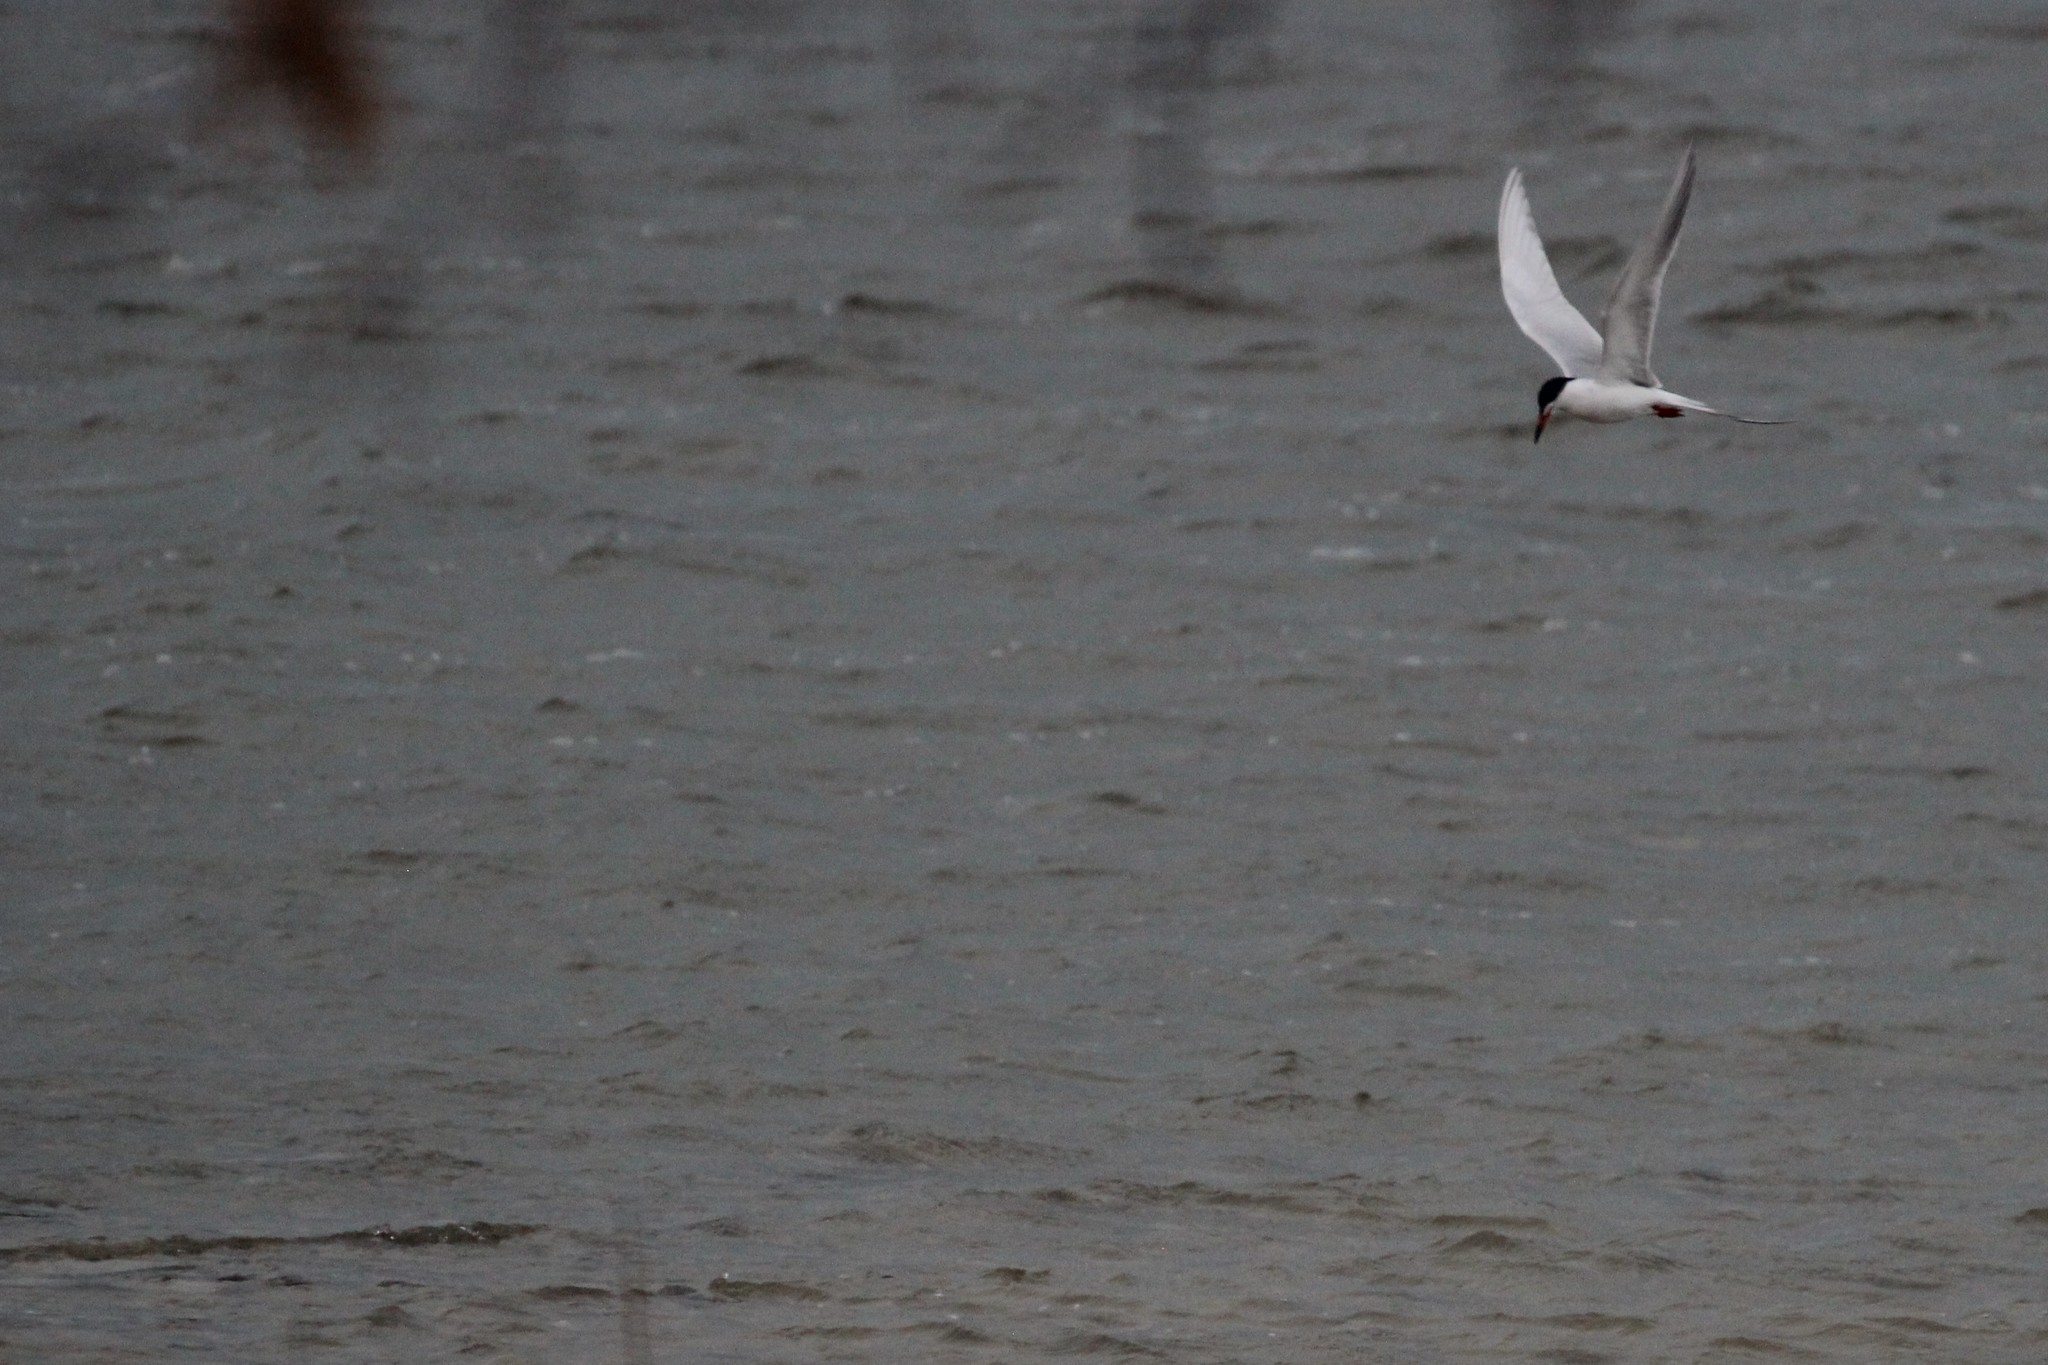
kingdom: Animalia
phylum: Chordata
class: Aves
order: Charadriiformes
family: Laridae
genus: Sterna
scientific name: Sterna forsteri
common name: Forster's tern
